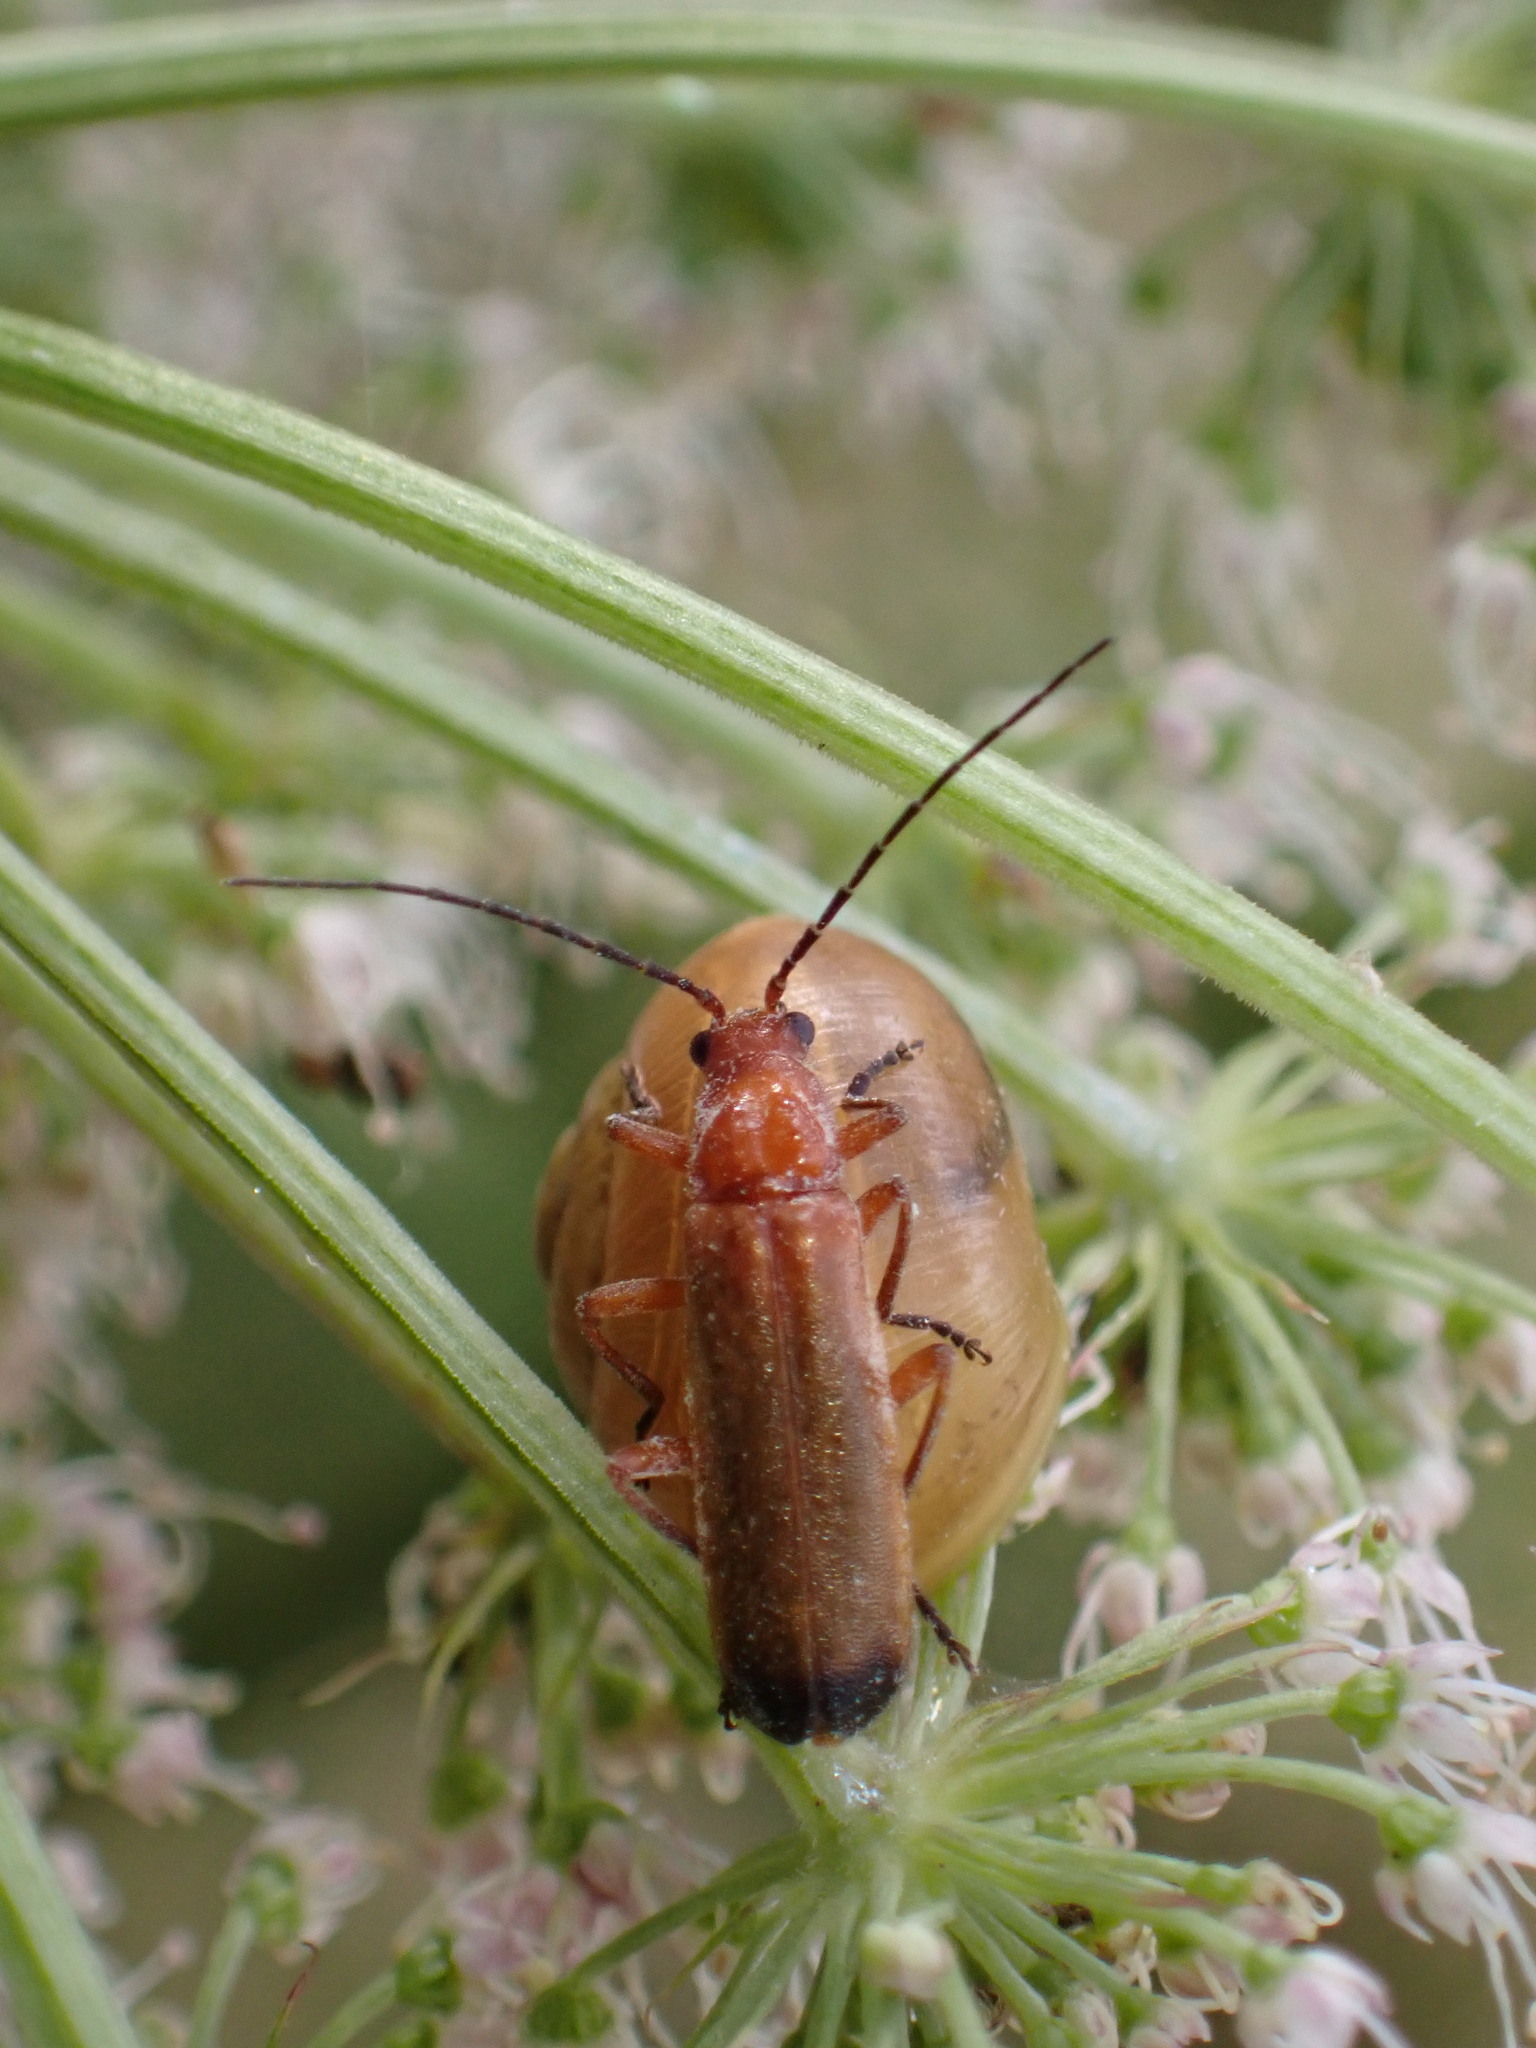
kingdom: Animalia
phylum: Arthropoda
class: Insecta
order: Coleoptera
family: Cantharidae
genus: Rhagonycha
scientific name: Rhagonycha fulva
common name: Common red soldier beetle
